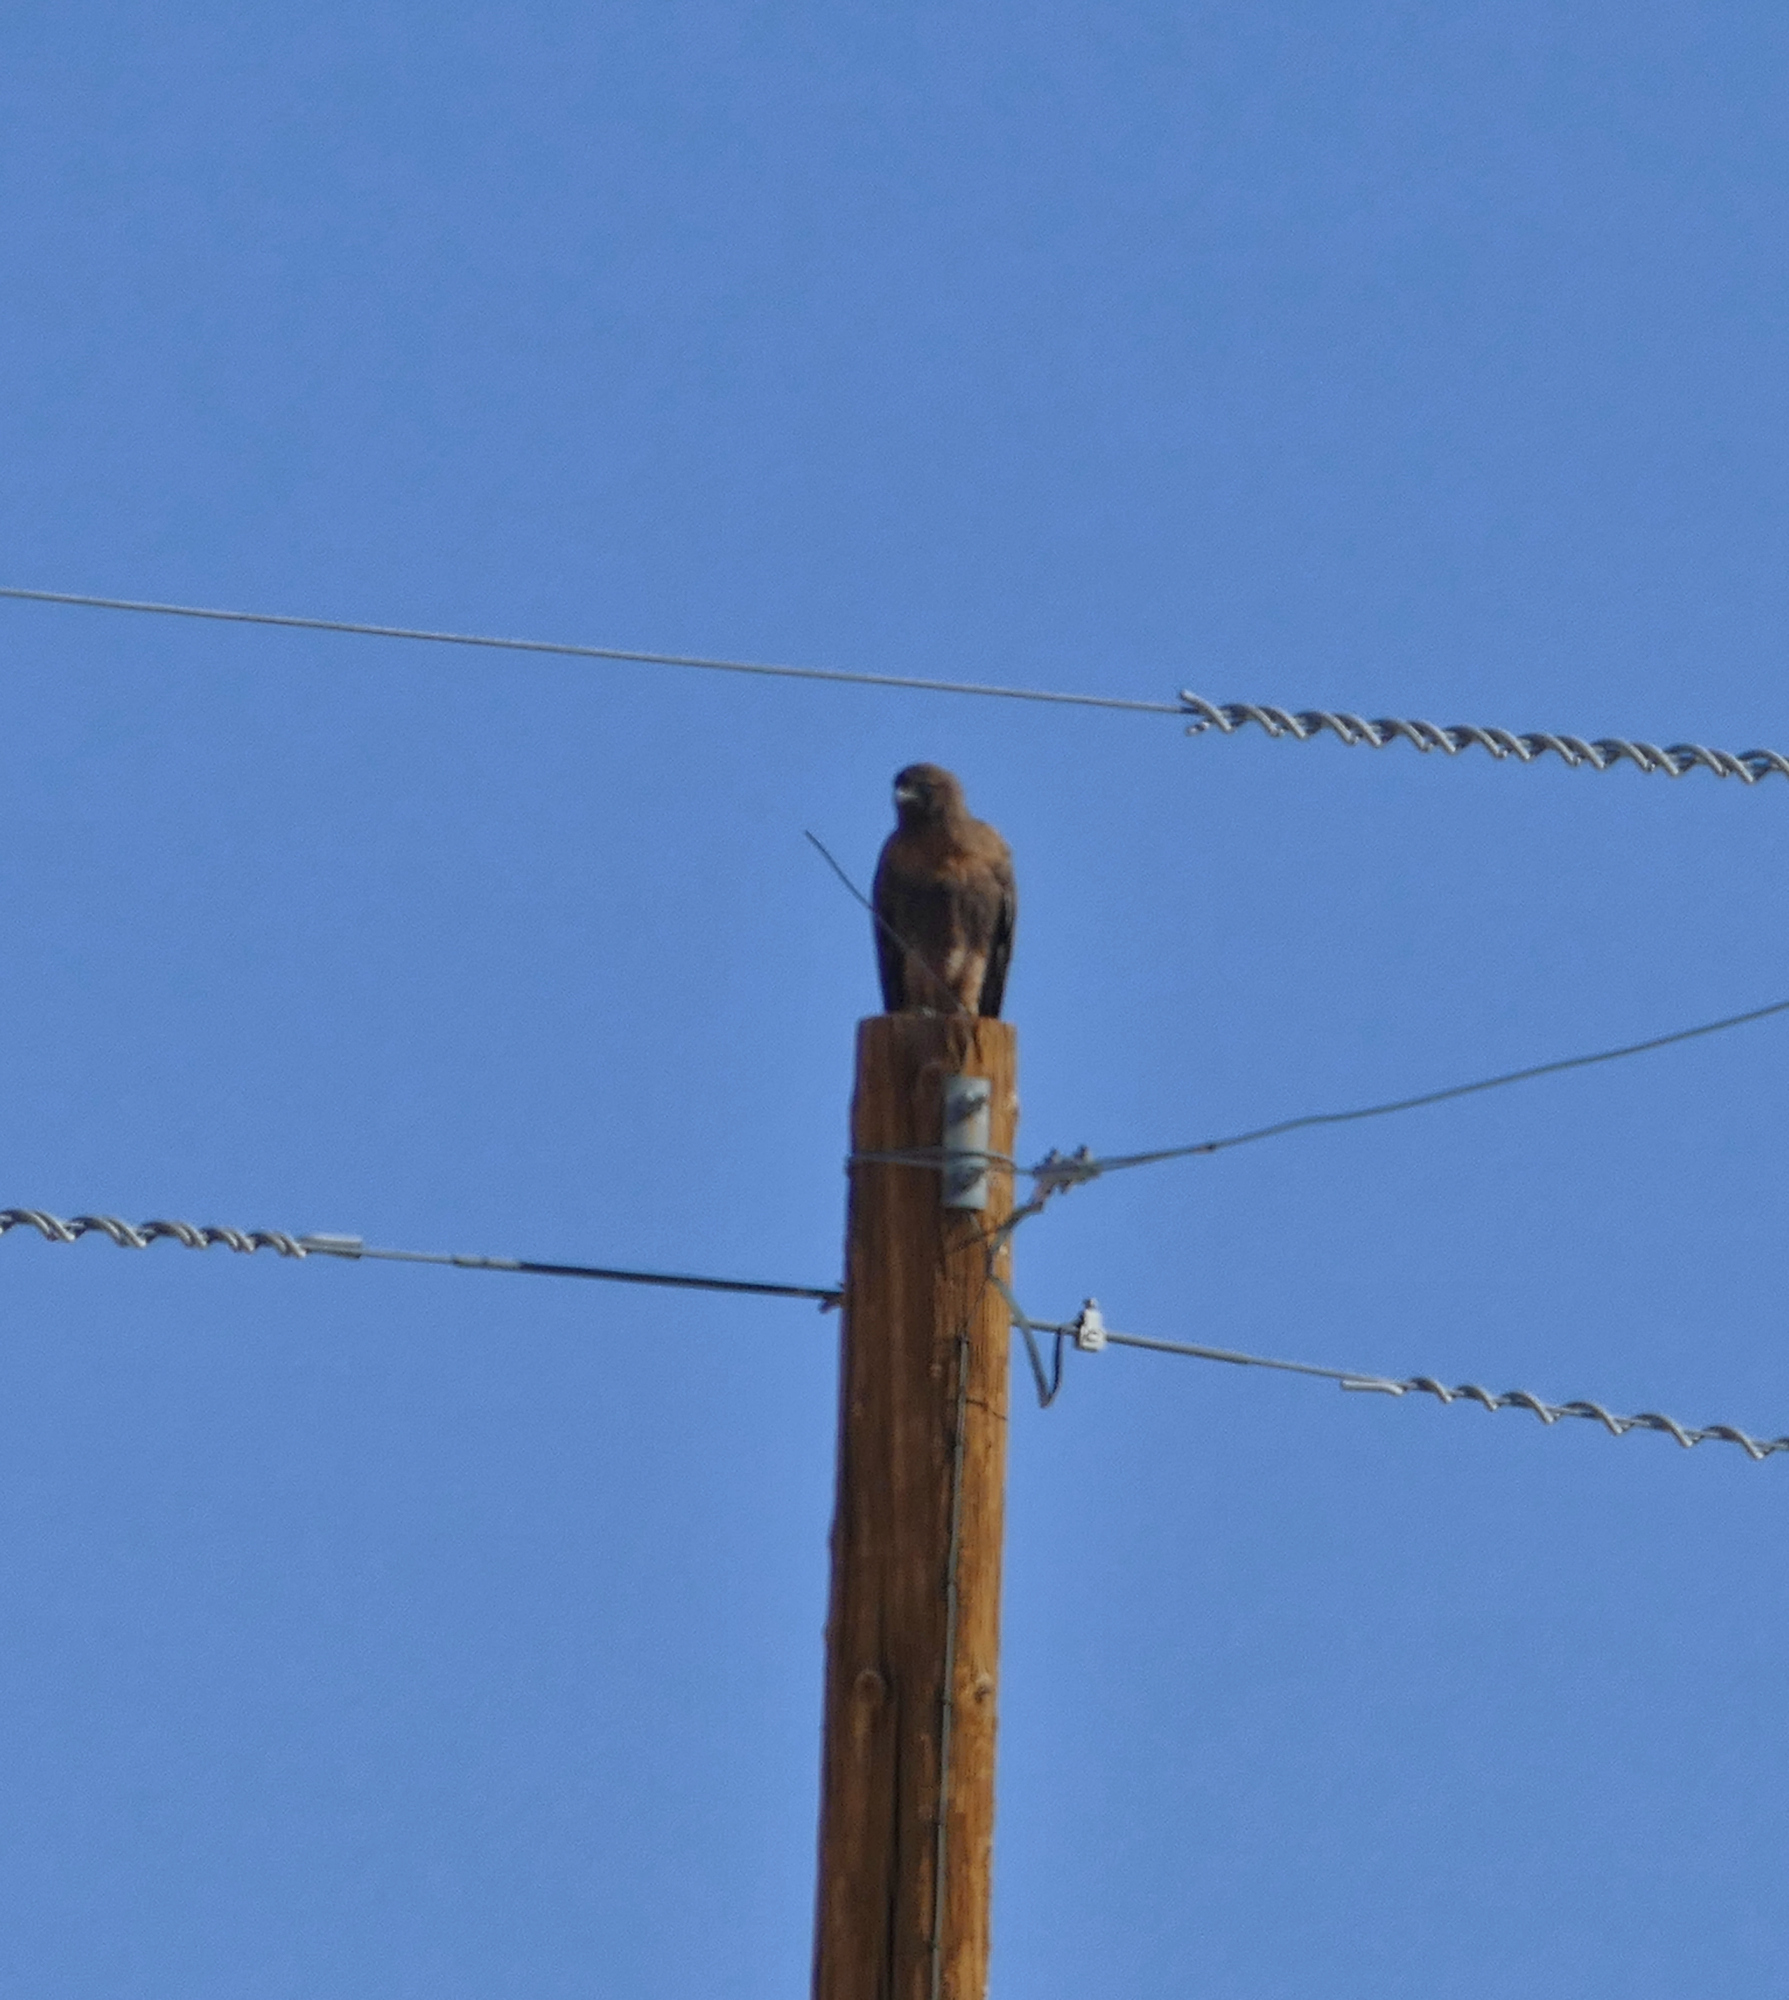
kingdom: Animalia
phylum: Chordata
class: Aves
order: Accipitriformes
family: Accipitridae
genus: Buteo
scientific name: Buteo jamaicensis
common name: Red-tailed hawk
